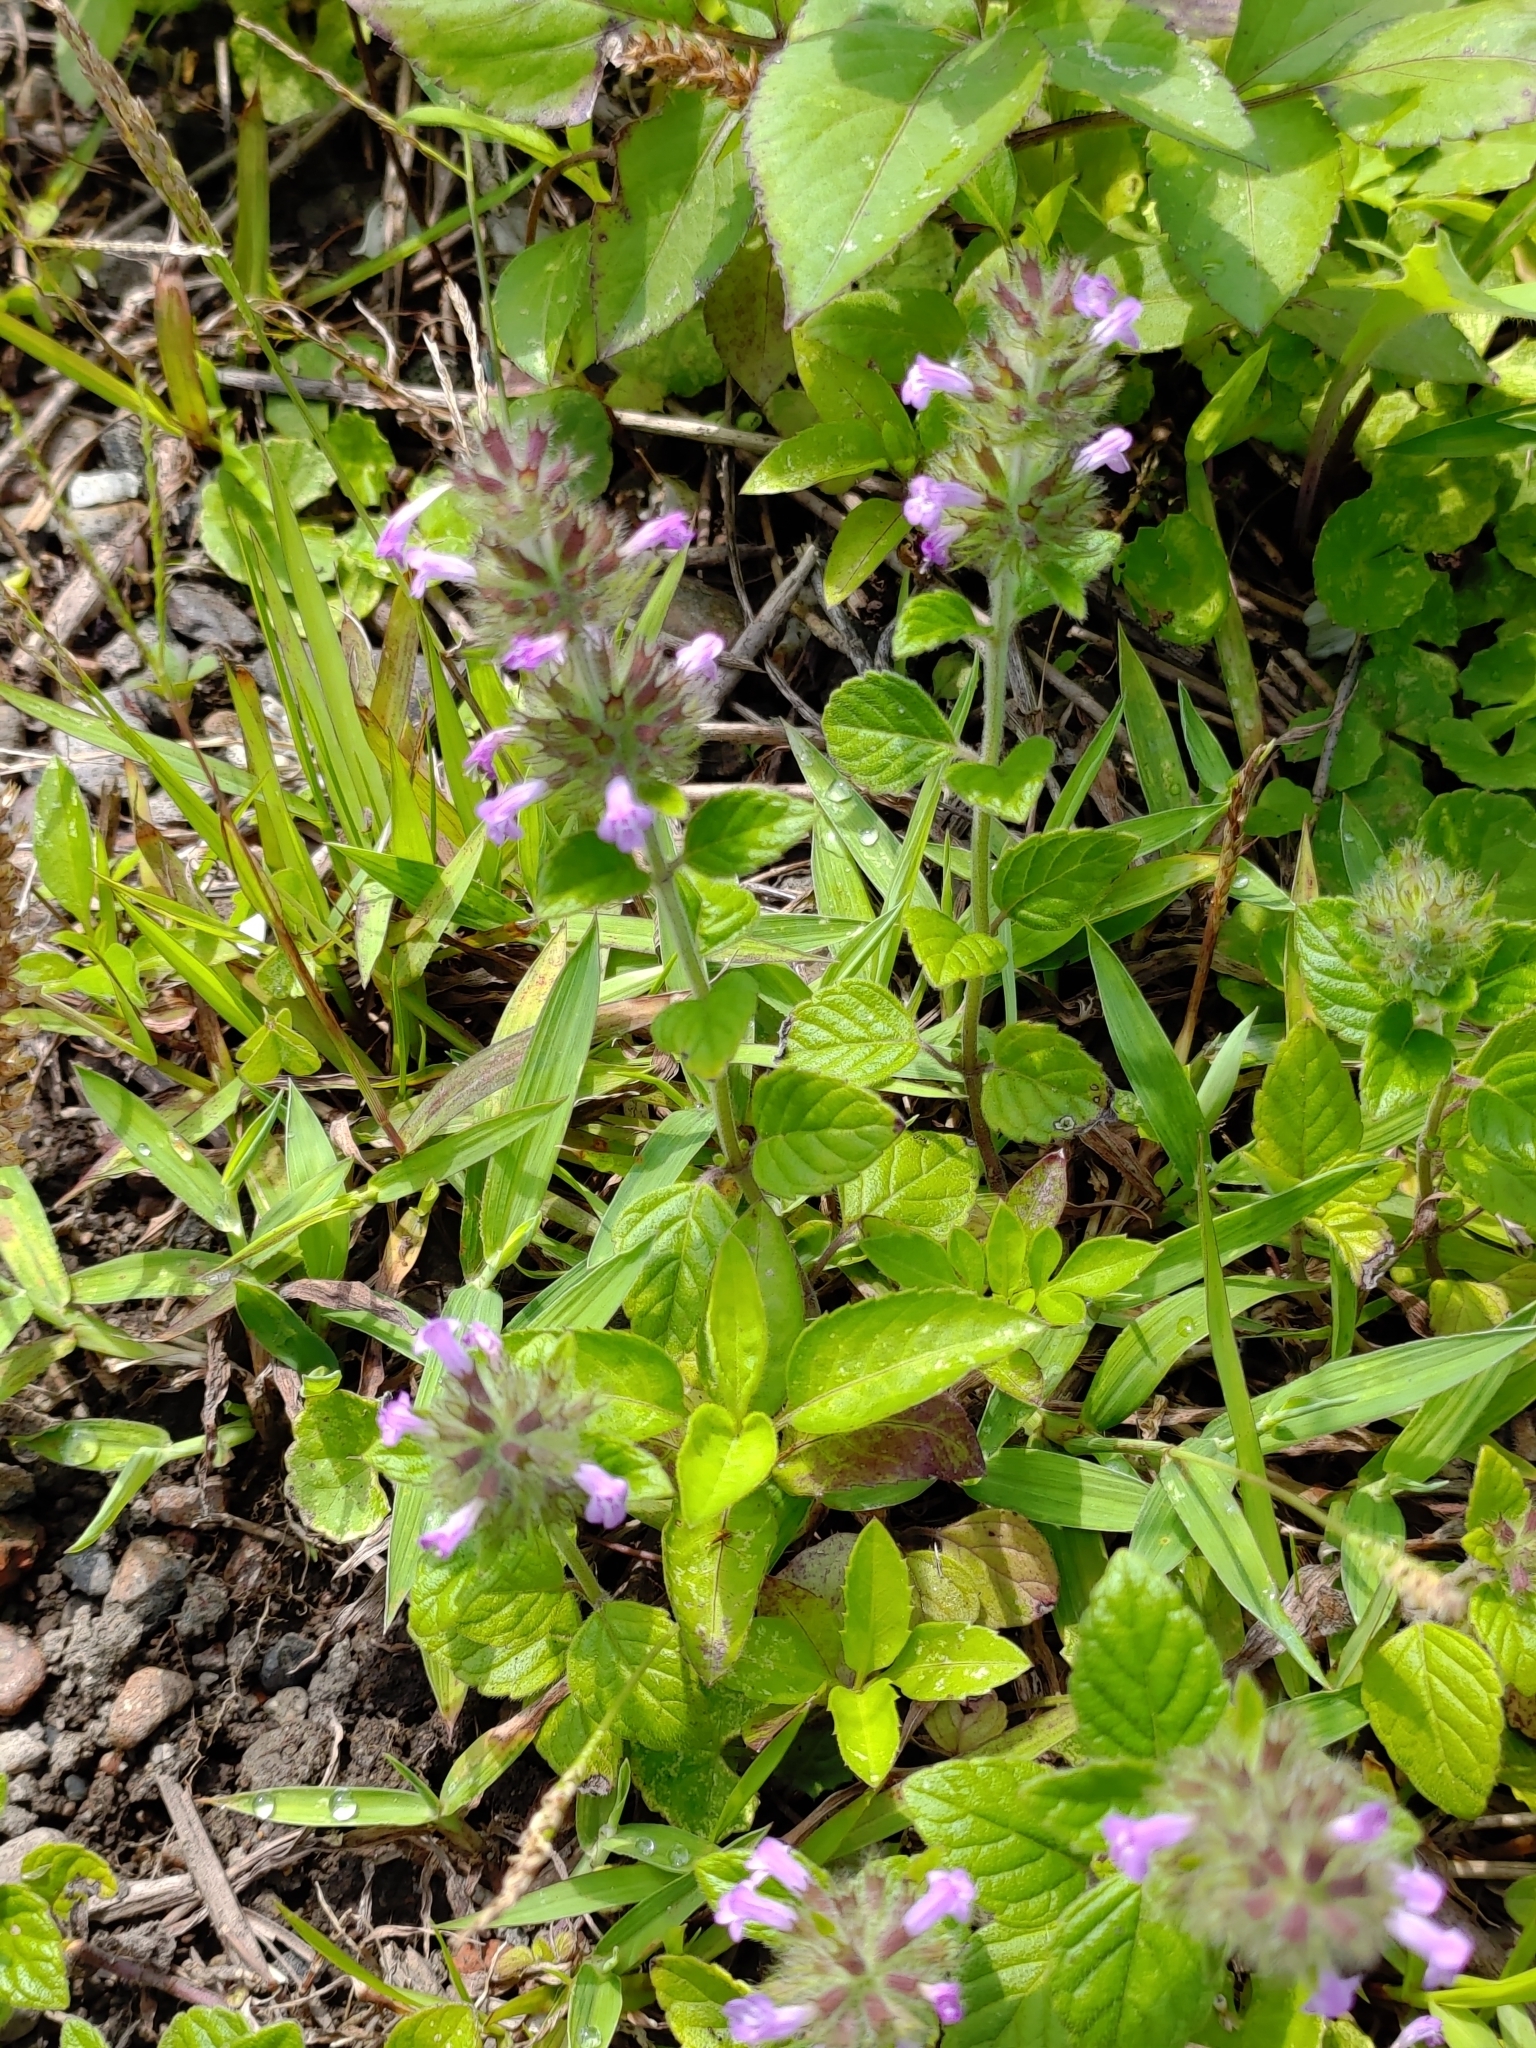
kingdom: Plantae
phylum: Tracheophyta
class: Magnoliopsida
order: Lamiales
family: Lamiaceae
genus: Clinopodium
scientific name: Clinopodium chinense
